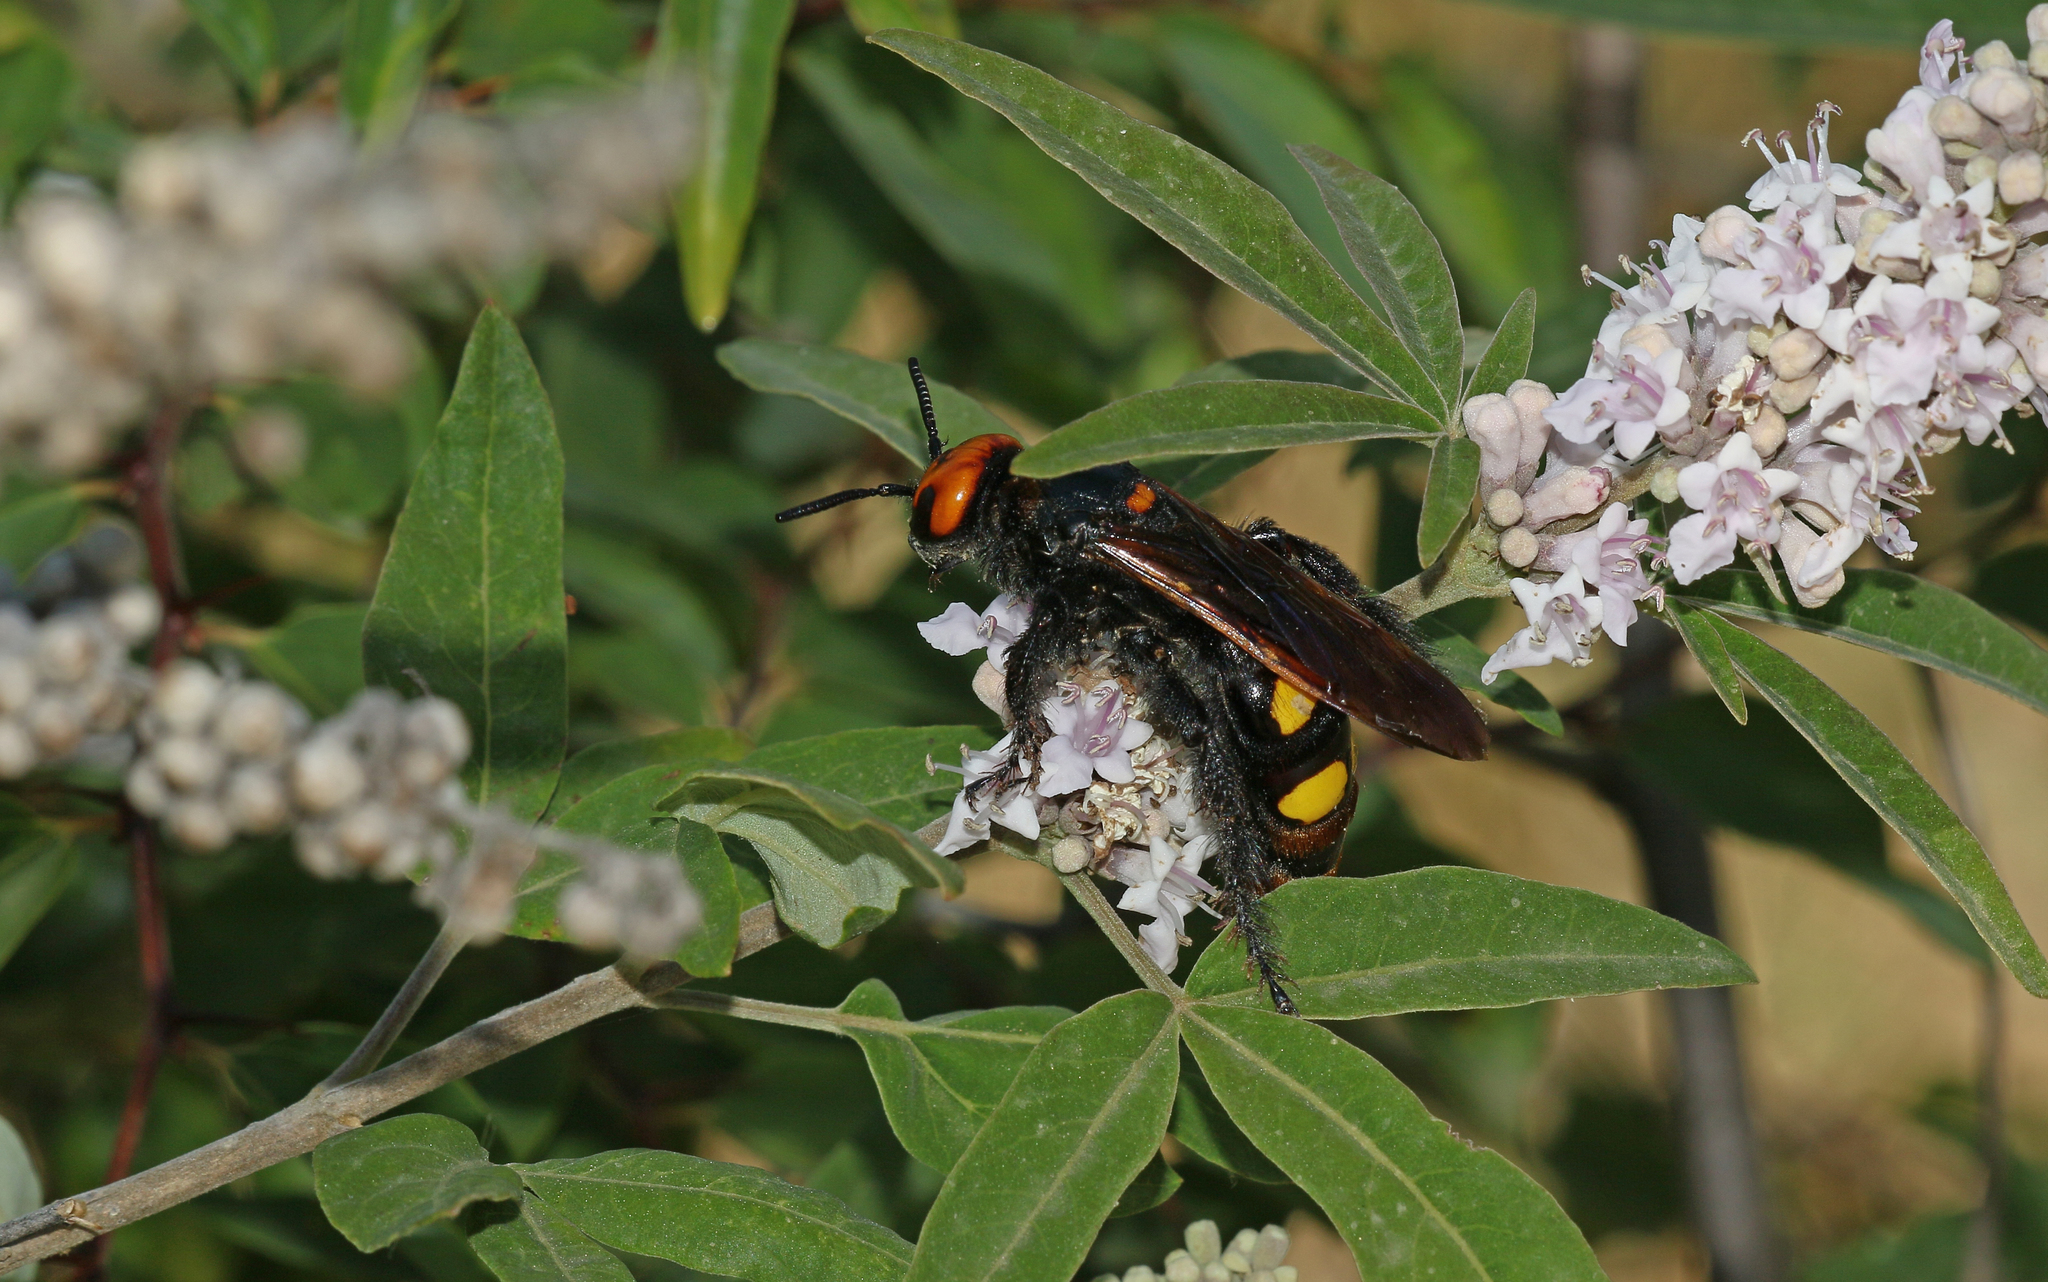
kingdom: Animalia
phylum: Arthropoda
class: Insecta
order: Hymenoptera
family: Scoliidae
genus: Megascolia
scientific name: Megascolia maculata
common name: Mammoth wasp
